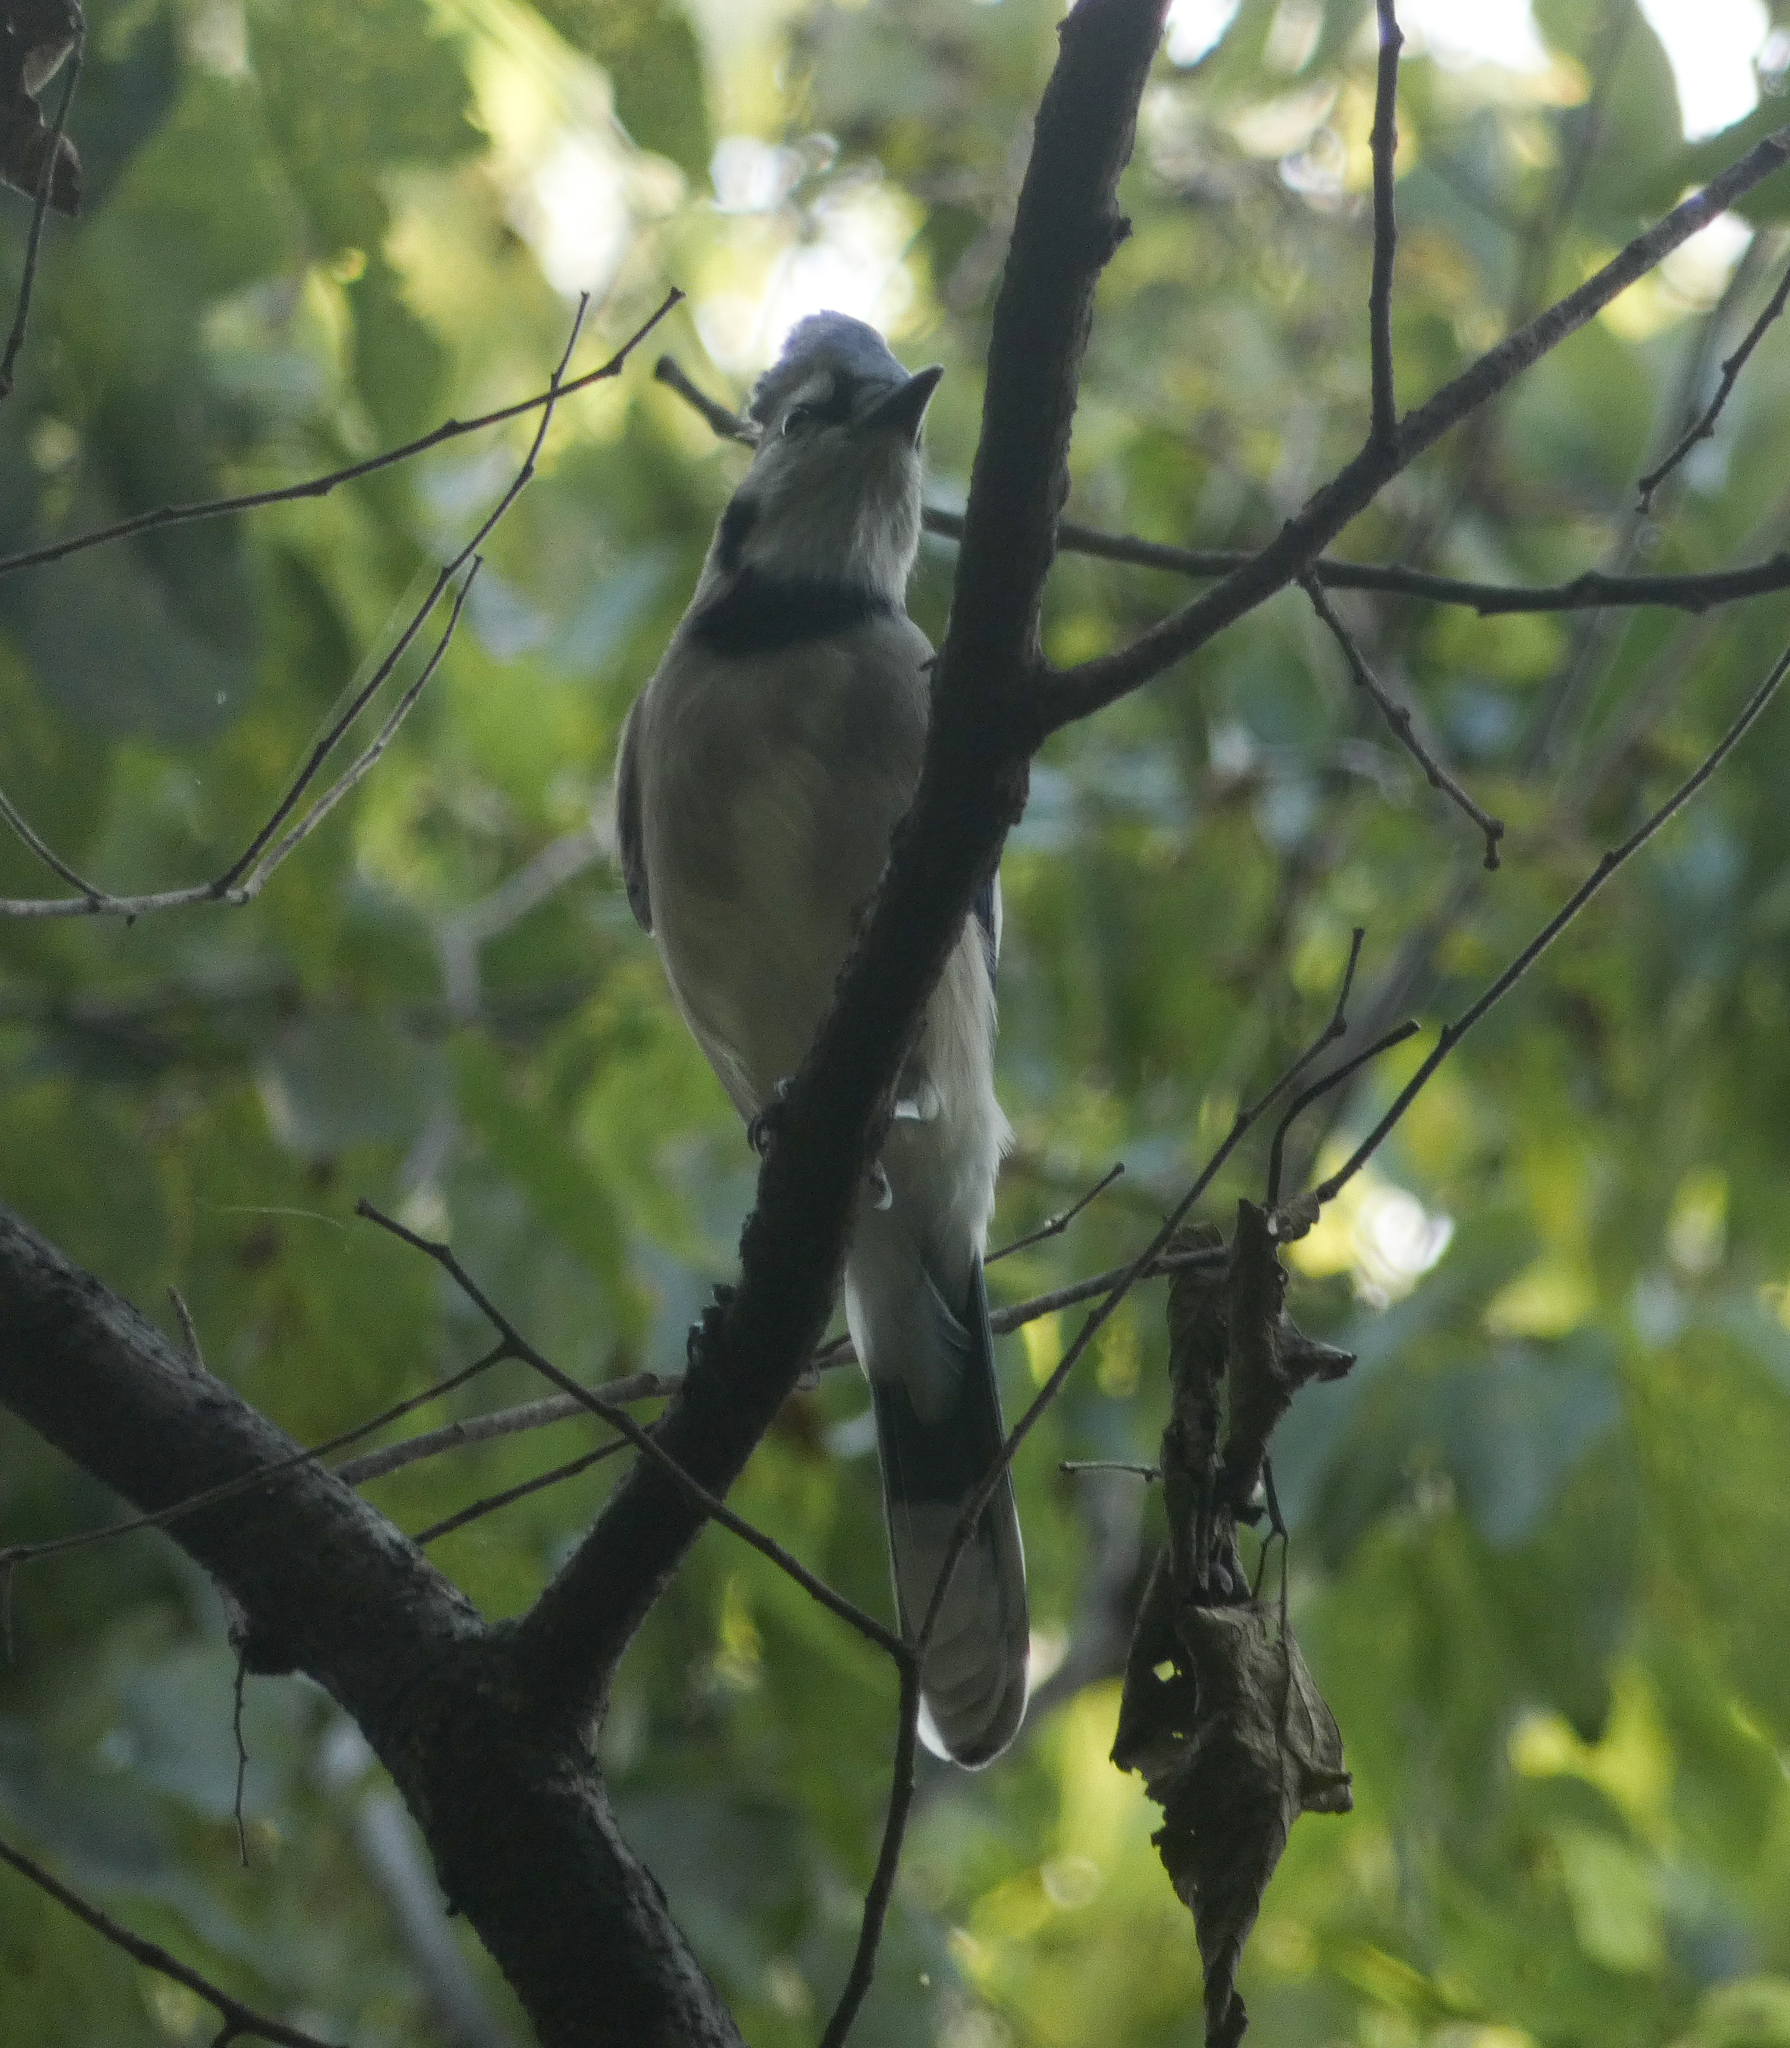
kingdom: Animalia
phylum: Chordata
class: Aves
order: Passeriformes
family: Corvidae
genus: Cyanocitta
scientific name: Cyanocitta cristata
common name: Blue jay
